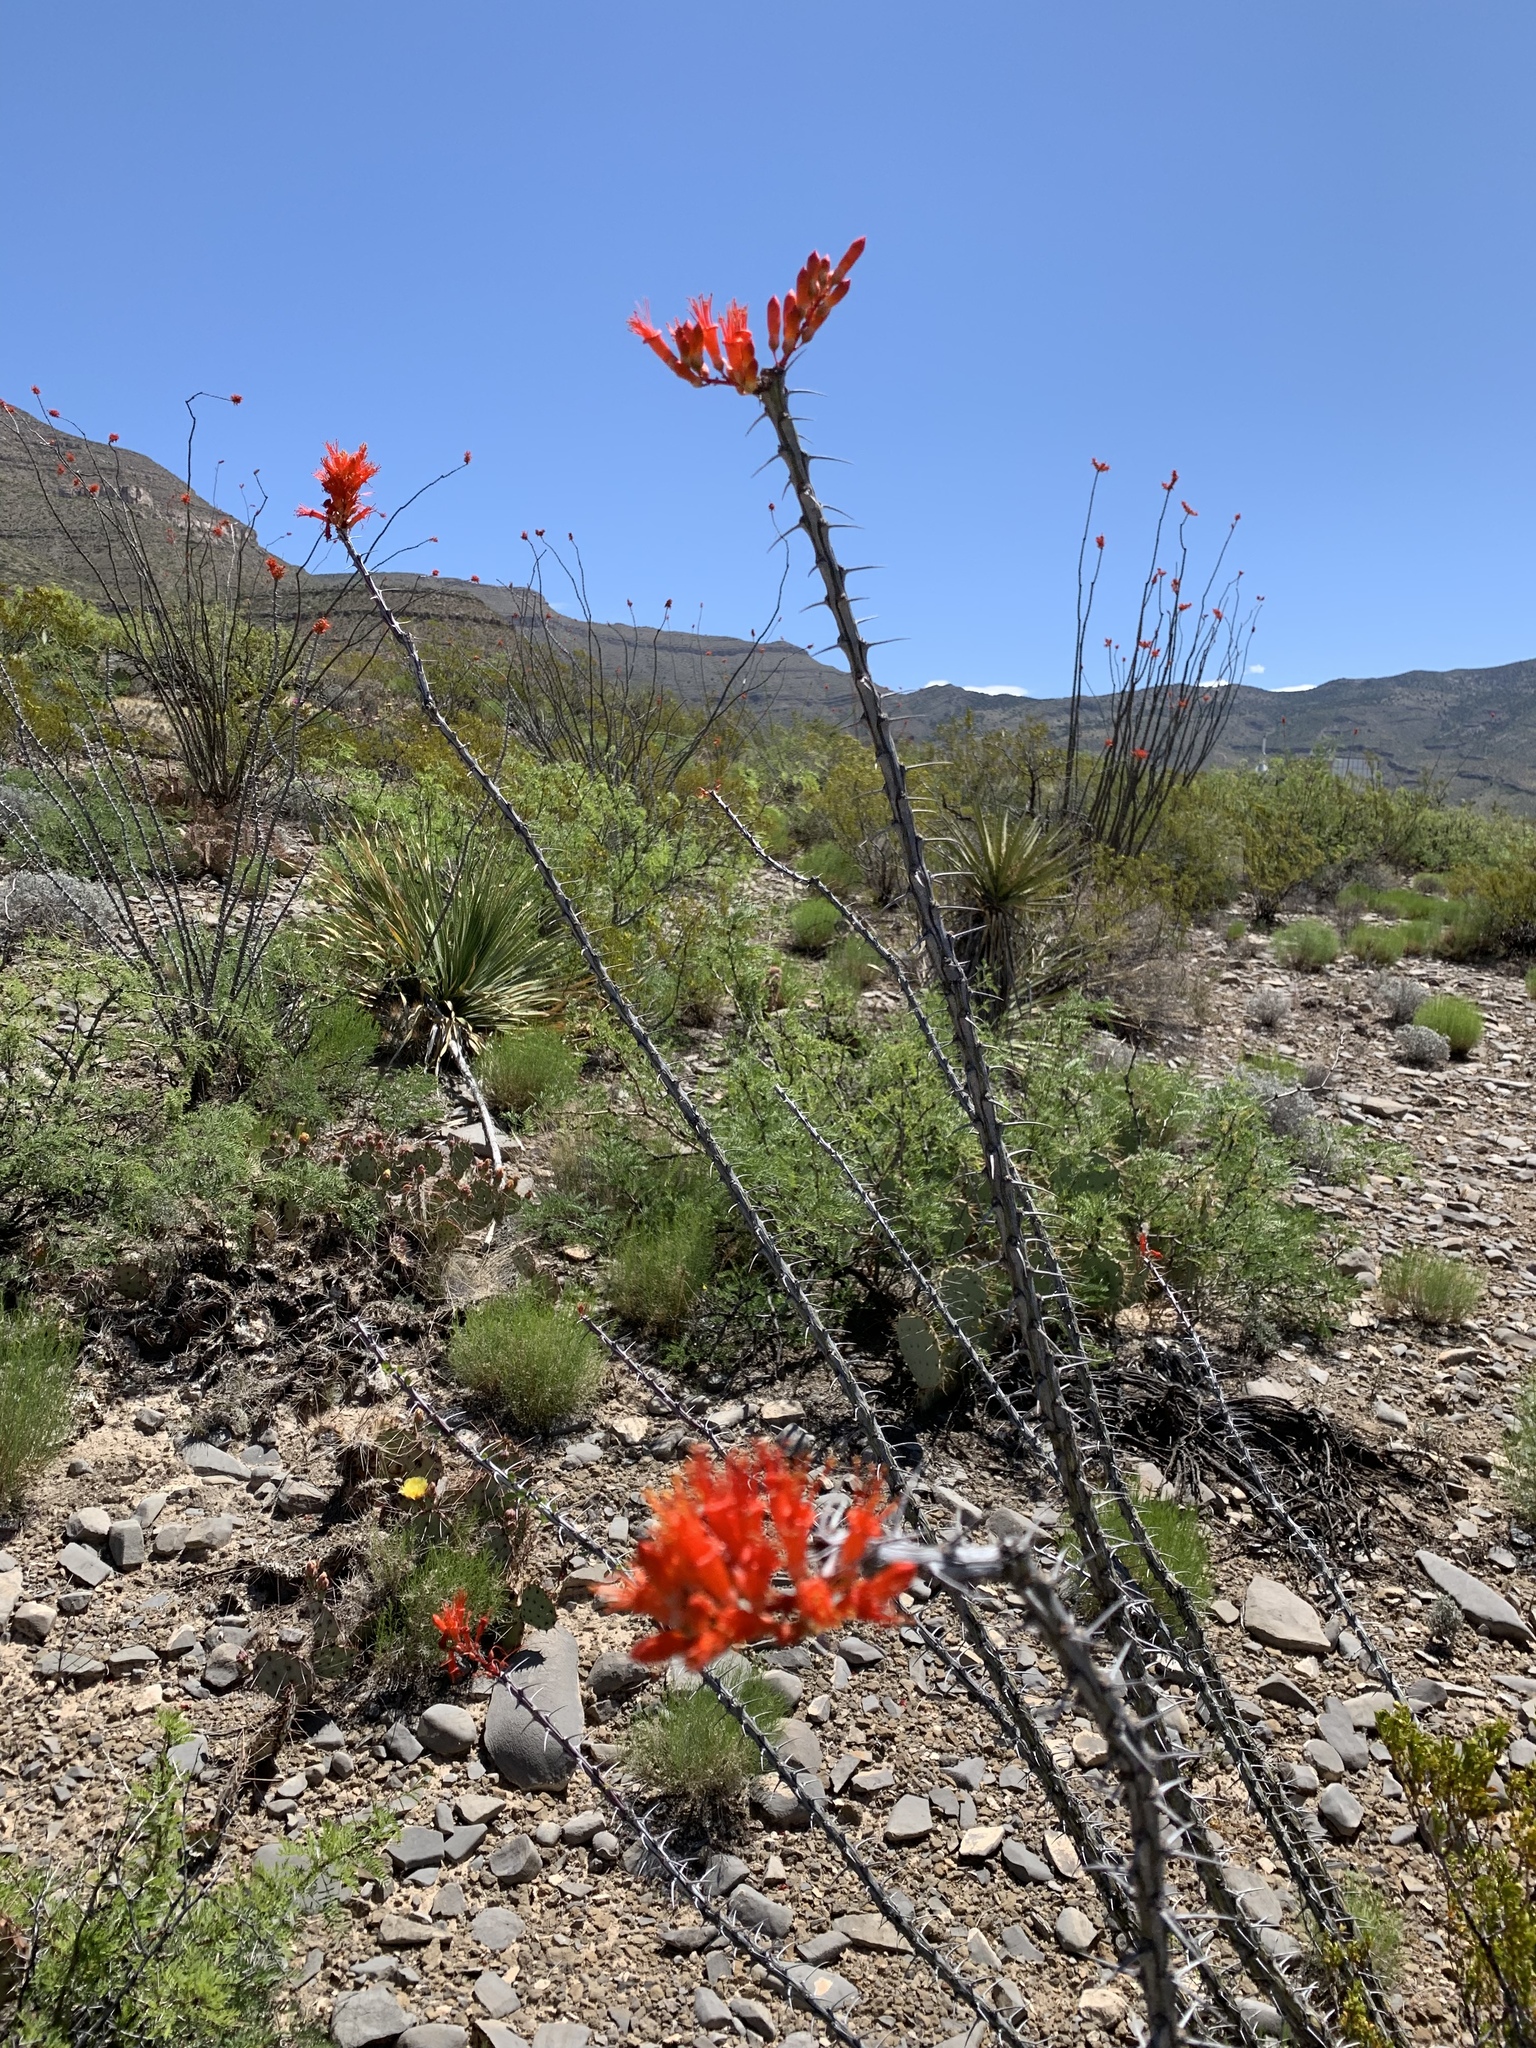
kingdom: Plantae
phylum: Tracheophyta
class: Magnoliopsida
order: Ericales
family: Fouquieriaceae
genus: Fouquieria
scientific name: Fouquieria splendens
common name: Vine-cactus
